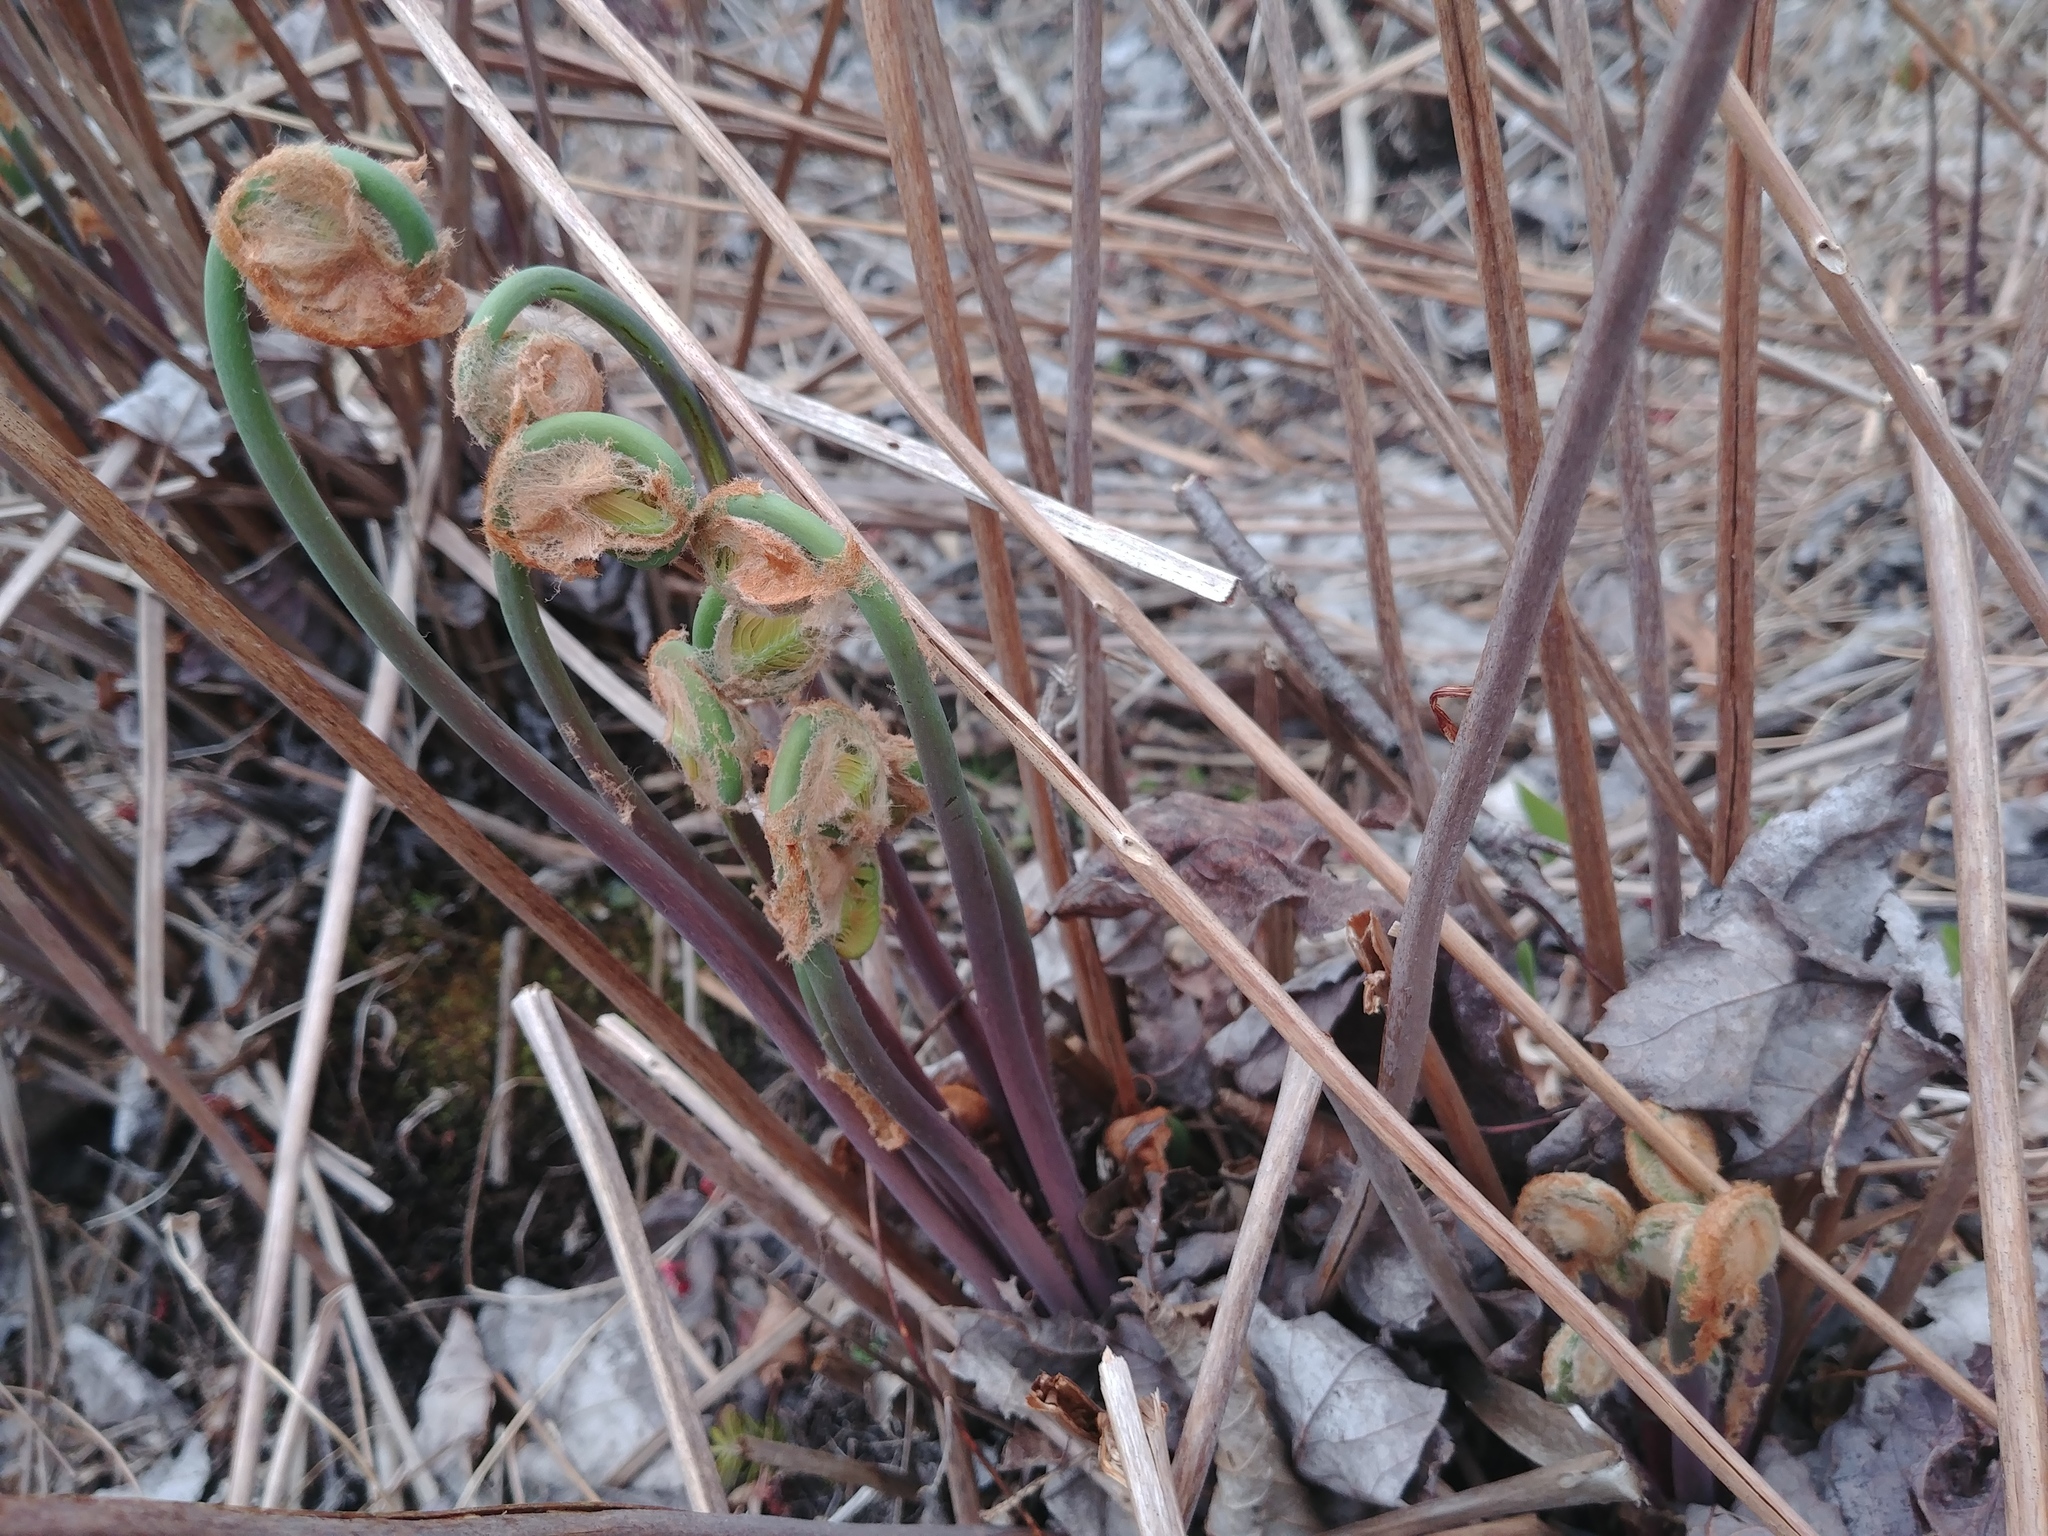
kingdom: Plantae
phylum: Tracheophyta
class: Polypodiopsida
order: Osmundales
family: Osmundaceae
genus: Osmunda
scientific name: Osmunda spectabilis
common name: American royal fern
